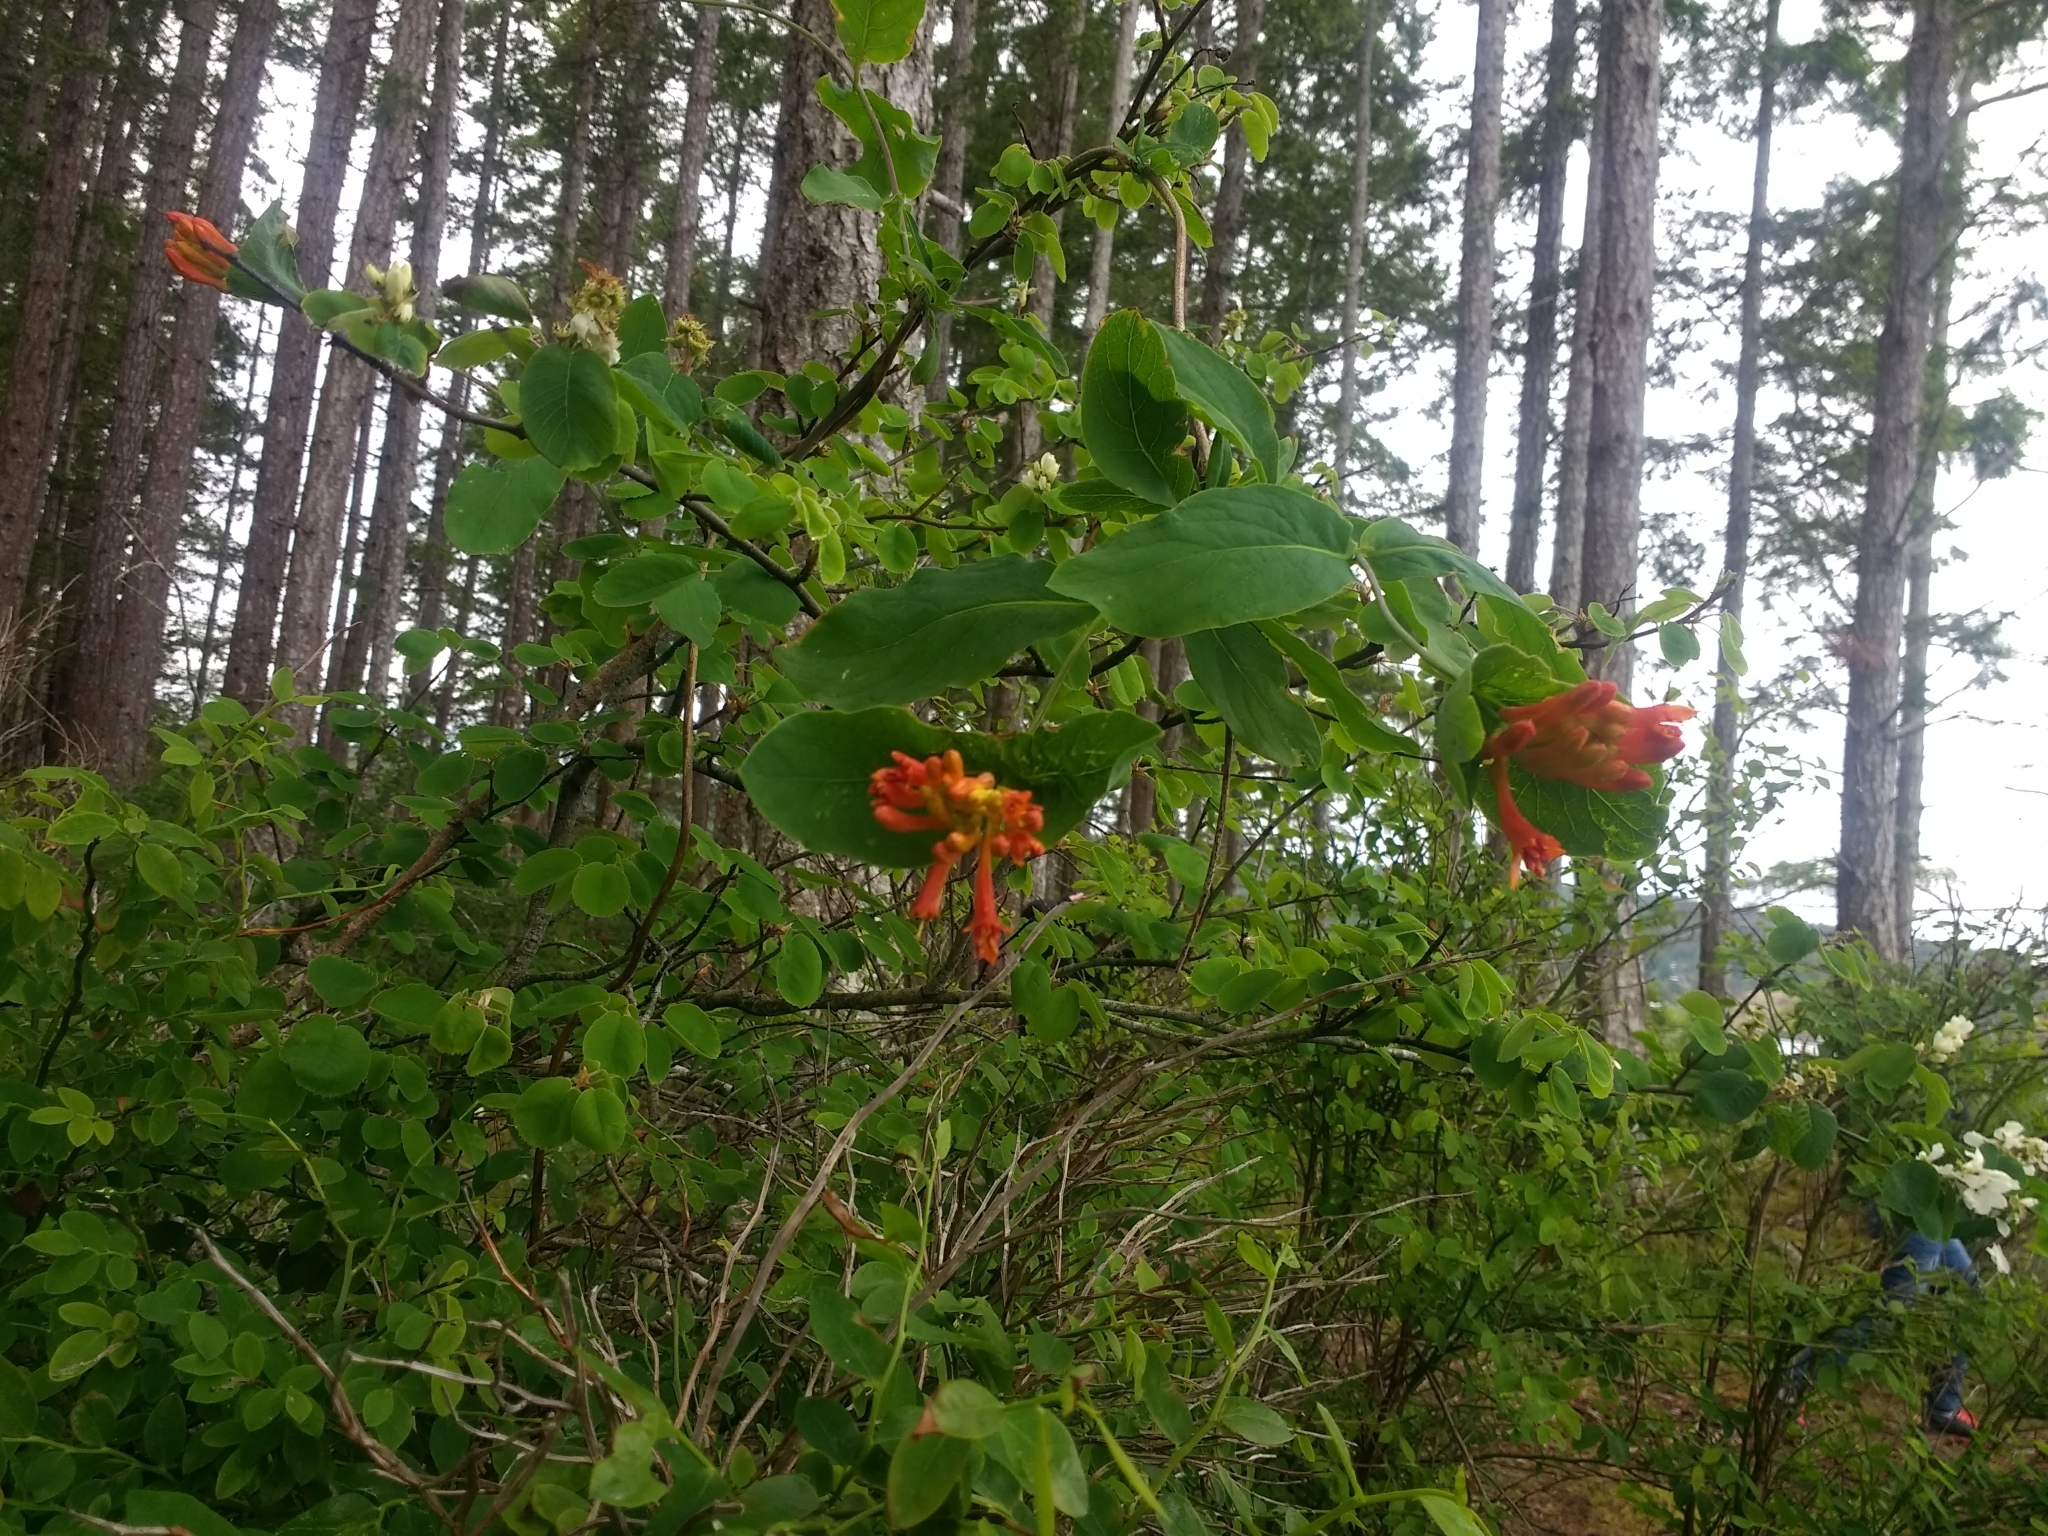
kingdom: Plantae
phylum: Tracheophyta
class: Magnoliopsida
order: Dipsacales
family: Caprifoliaceae
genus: Lonicera
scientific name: Lonicera ciliosa
